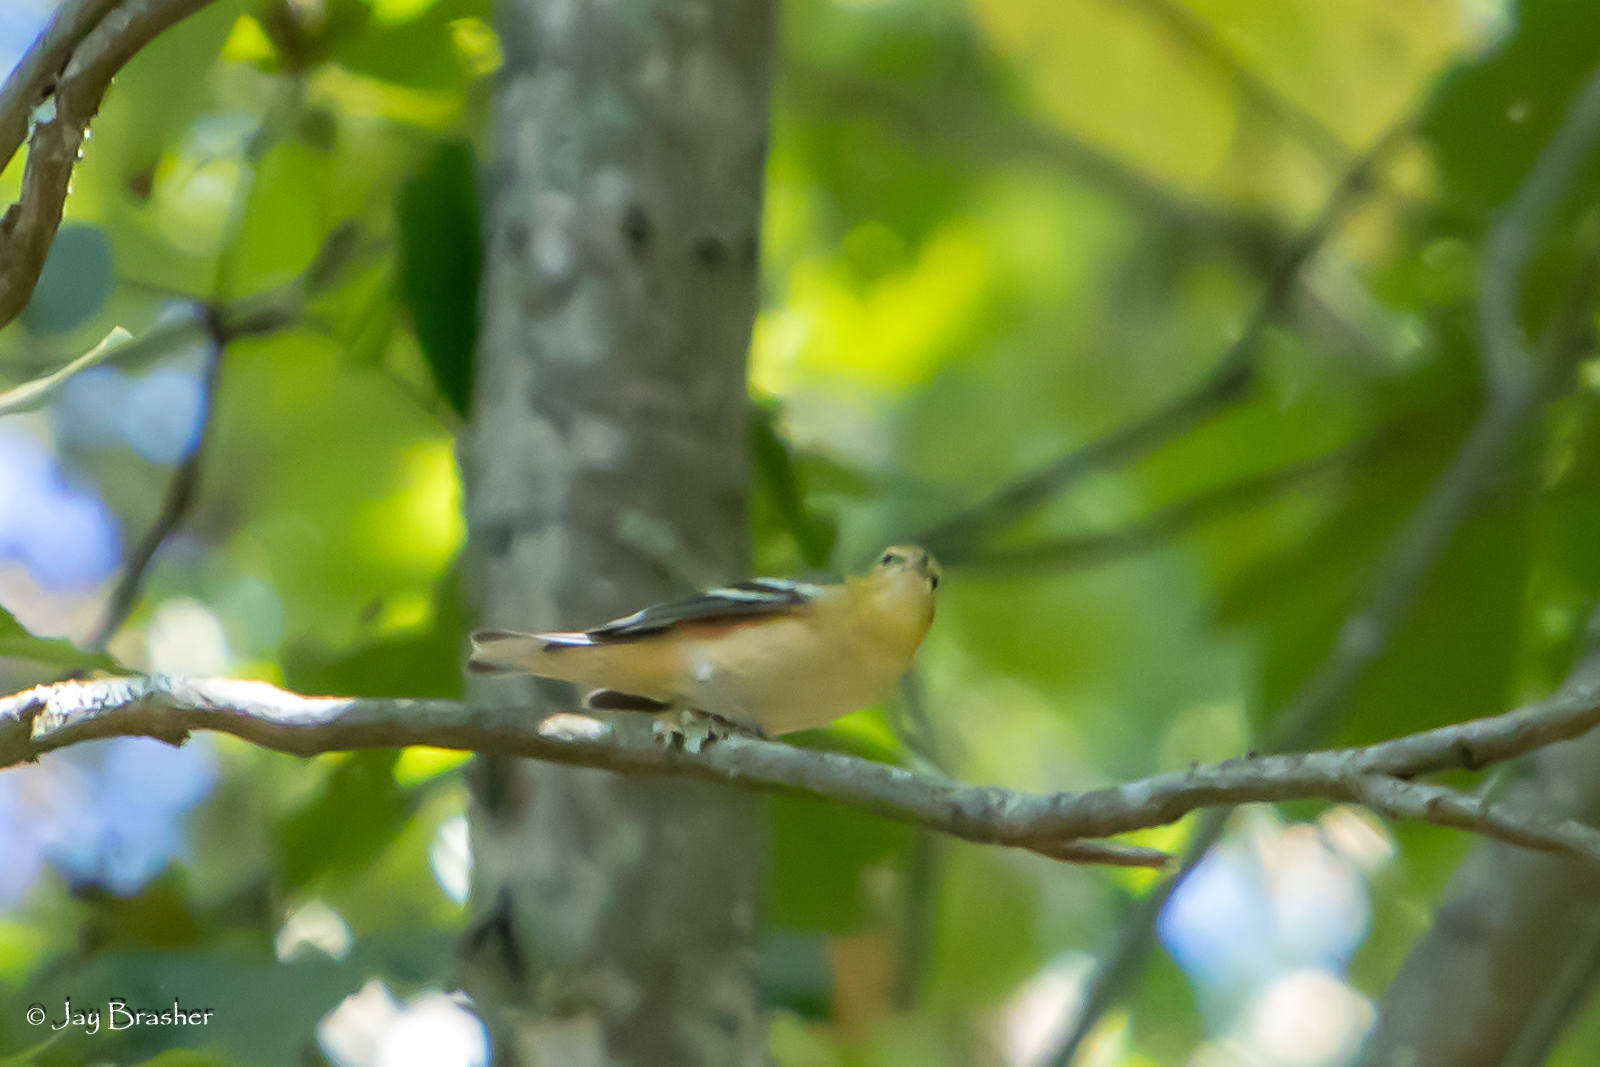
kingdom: Animalia
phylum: Chordata
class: Aves
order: Passeriformes
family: Parulidae
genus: Setophaga
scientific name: Setophaga castanea
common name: Bay-breasted warbler
